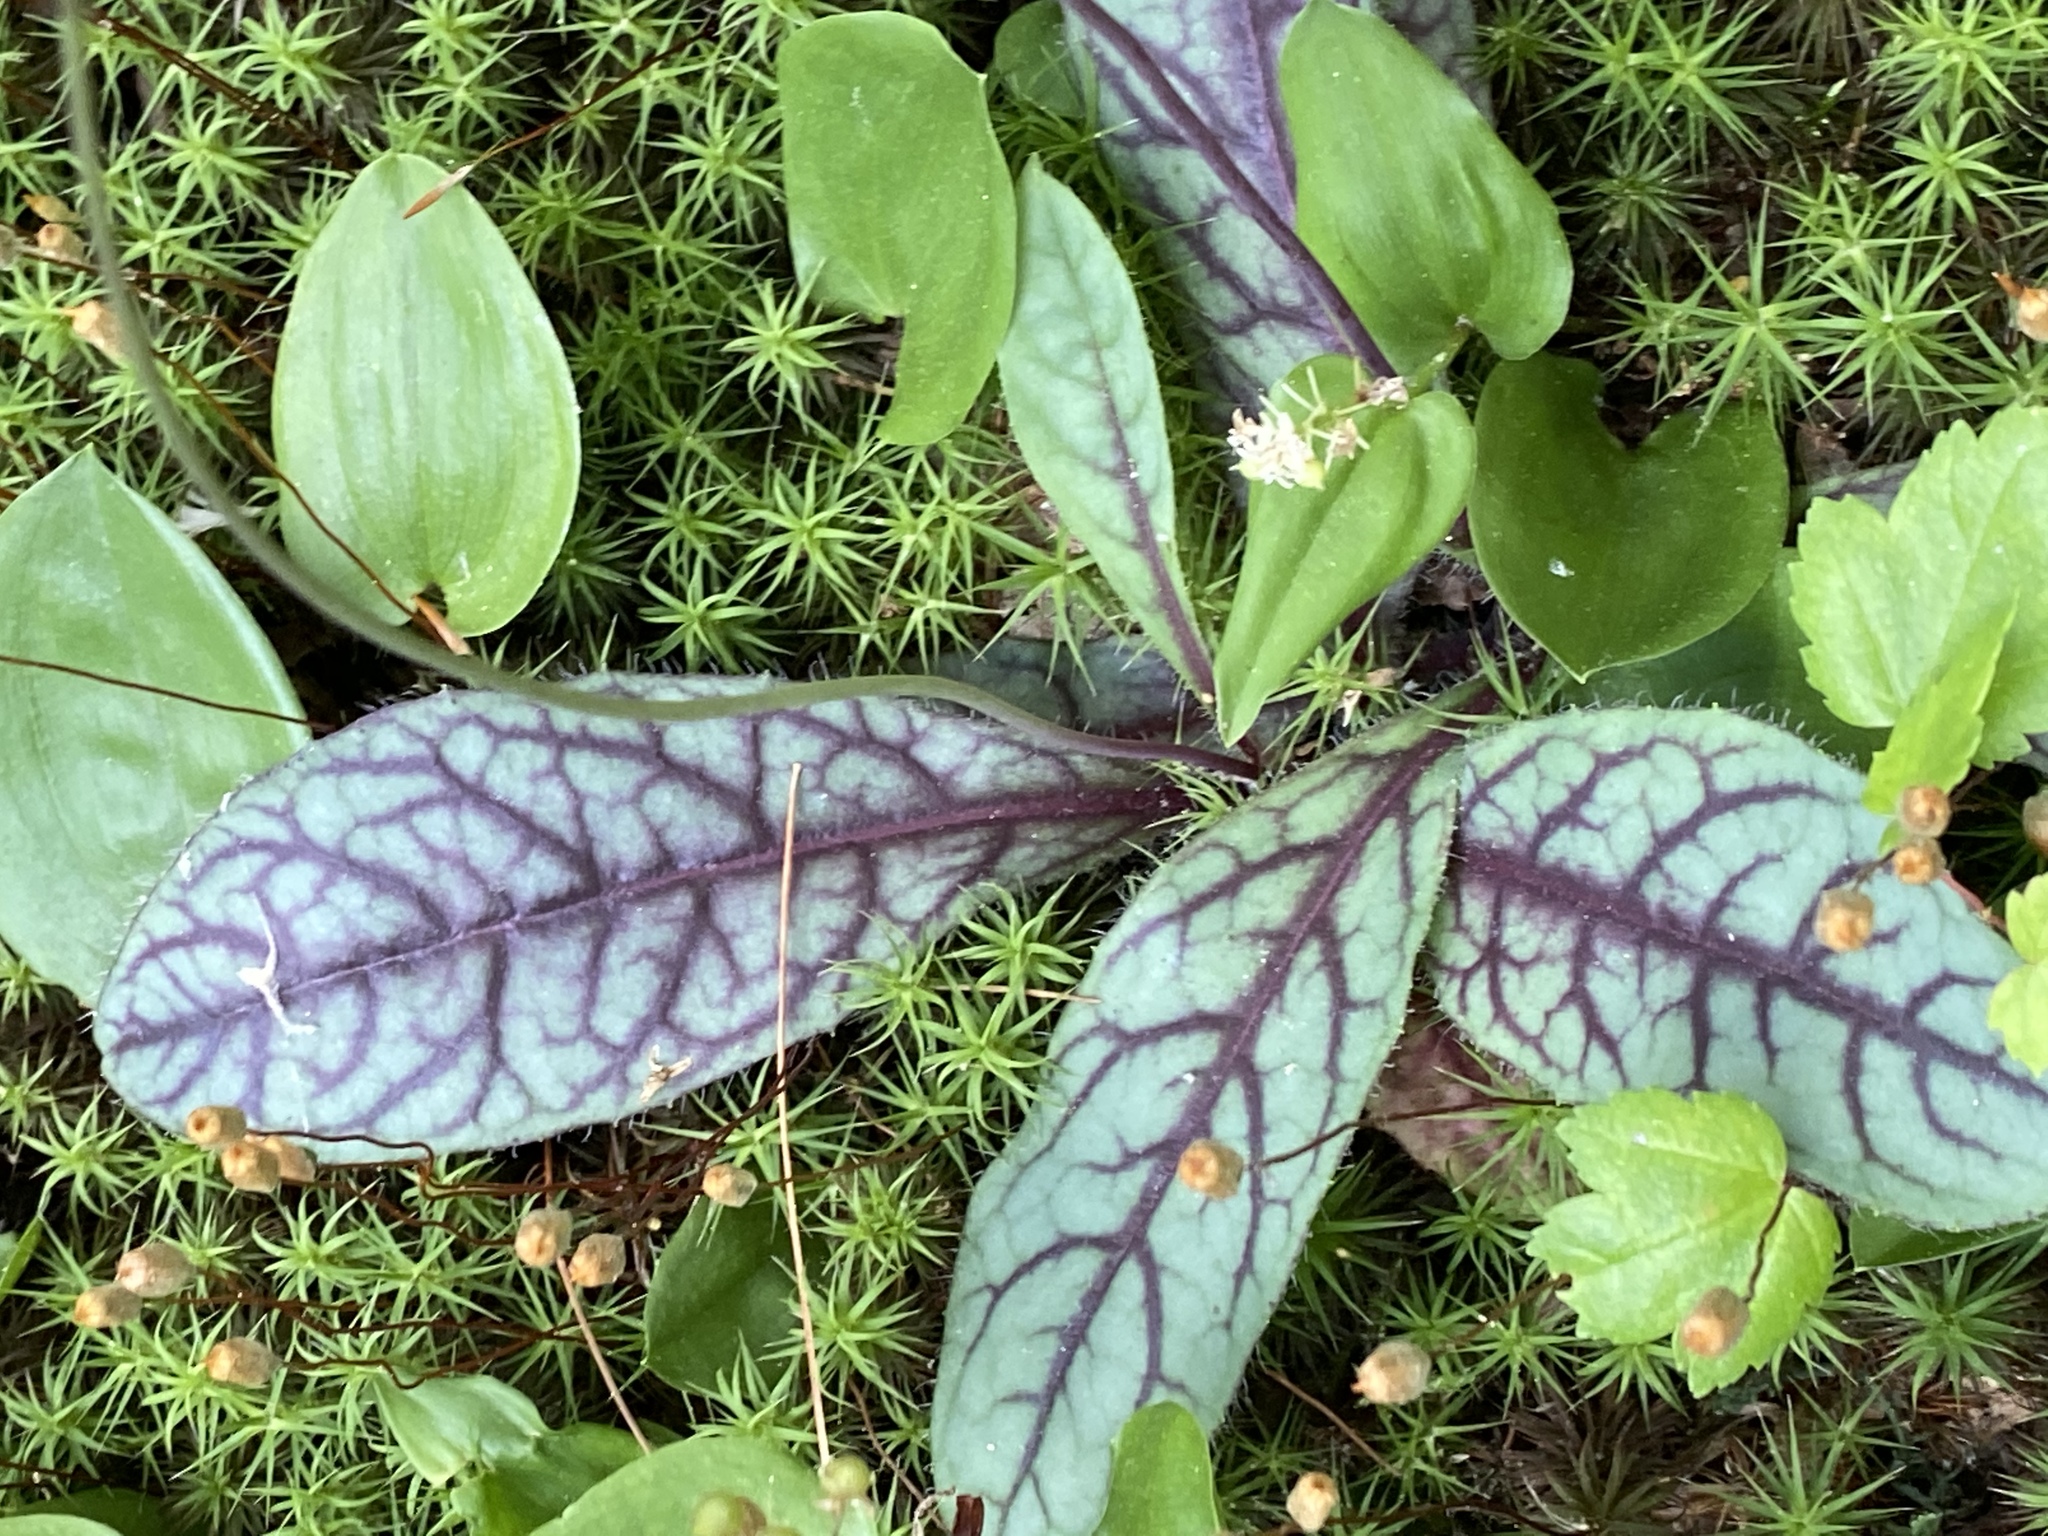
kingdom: Plantae
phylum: Tracheophyta
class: Magnoliopsida
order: Asterales
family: Asteraceae
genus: Hieracium
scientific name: Hieracium venosum
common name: Rattlesnake hawkweed
